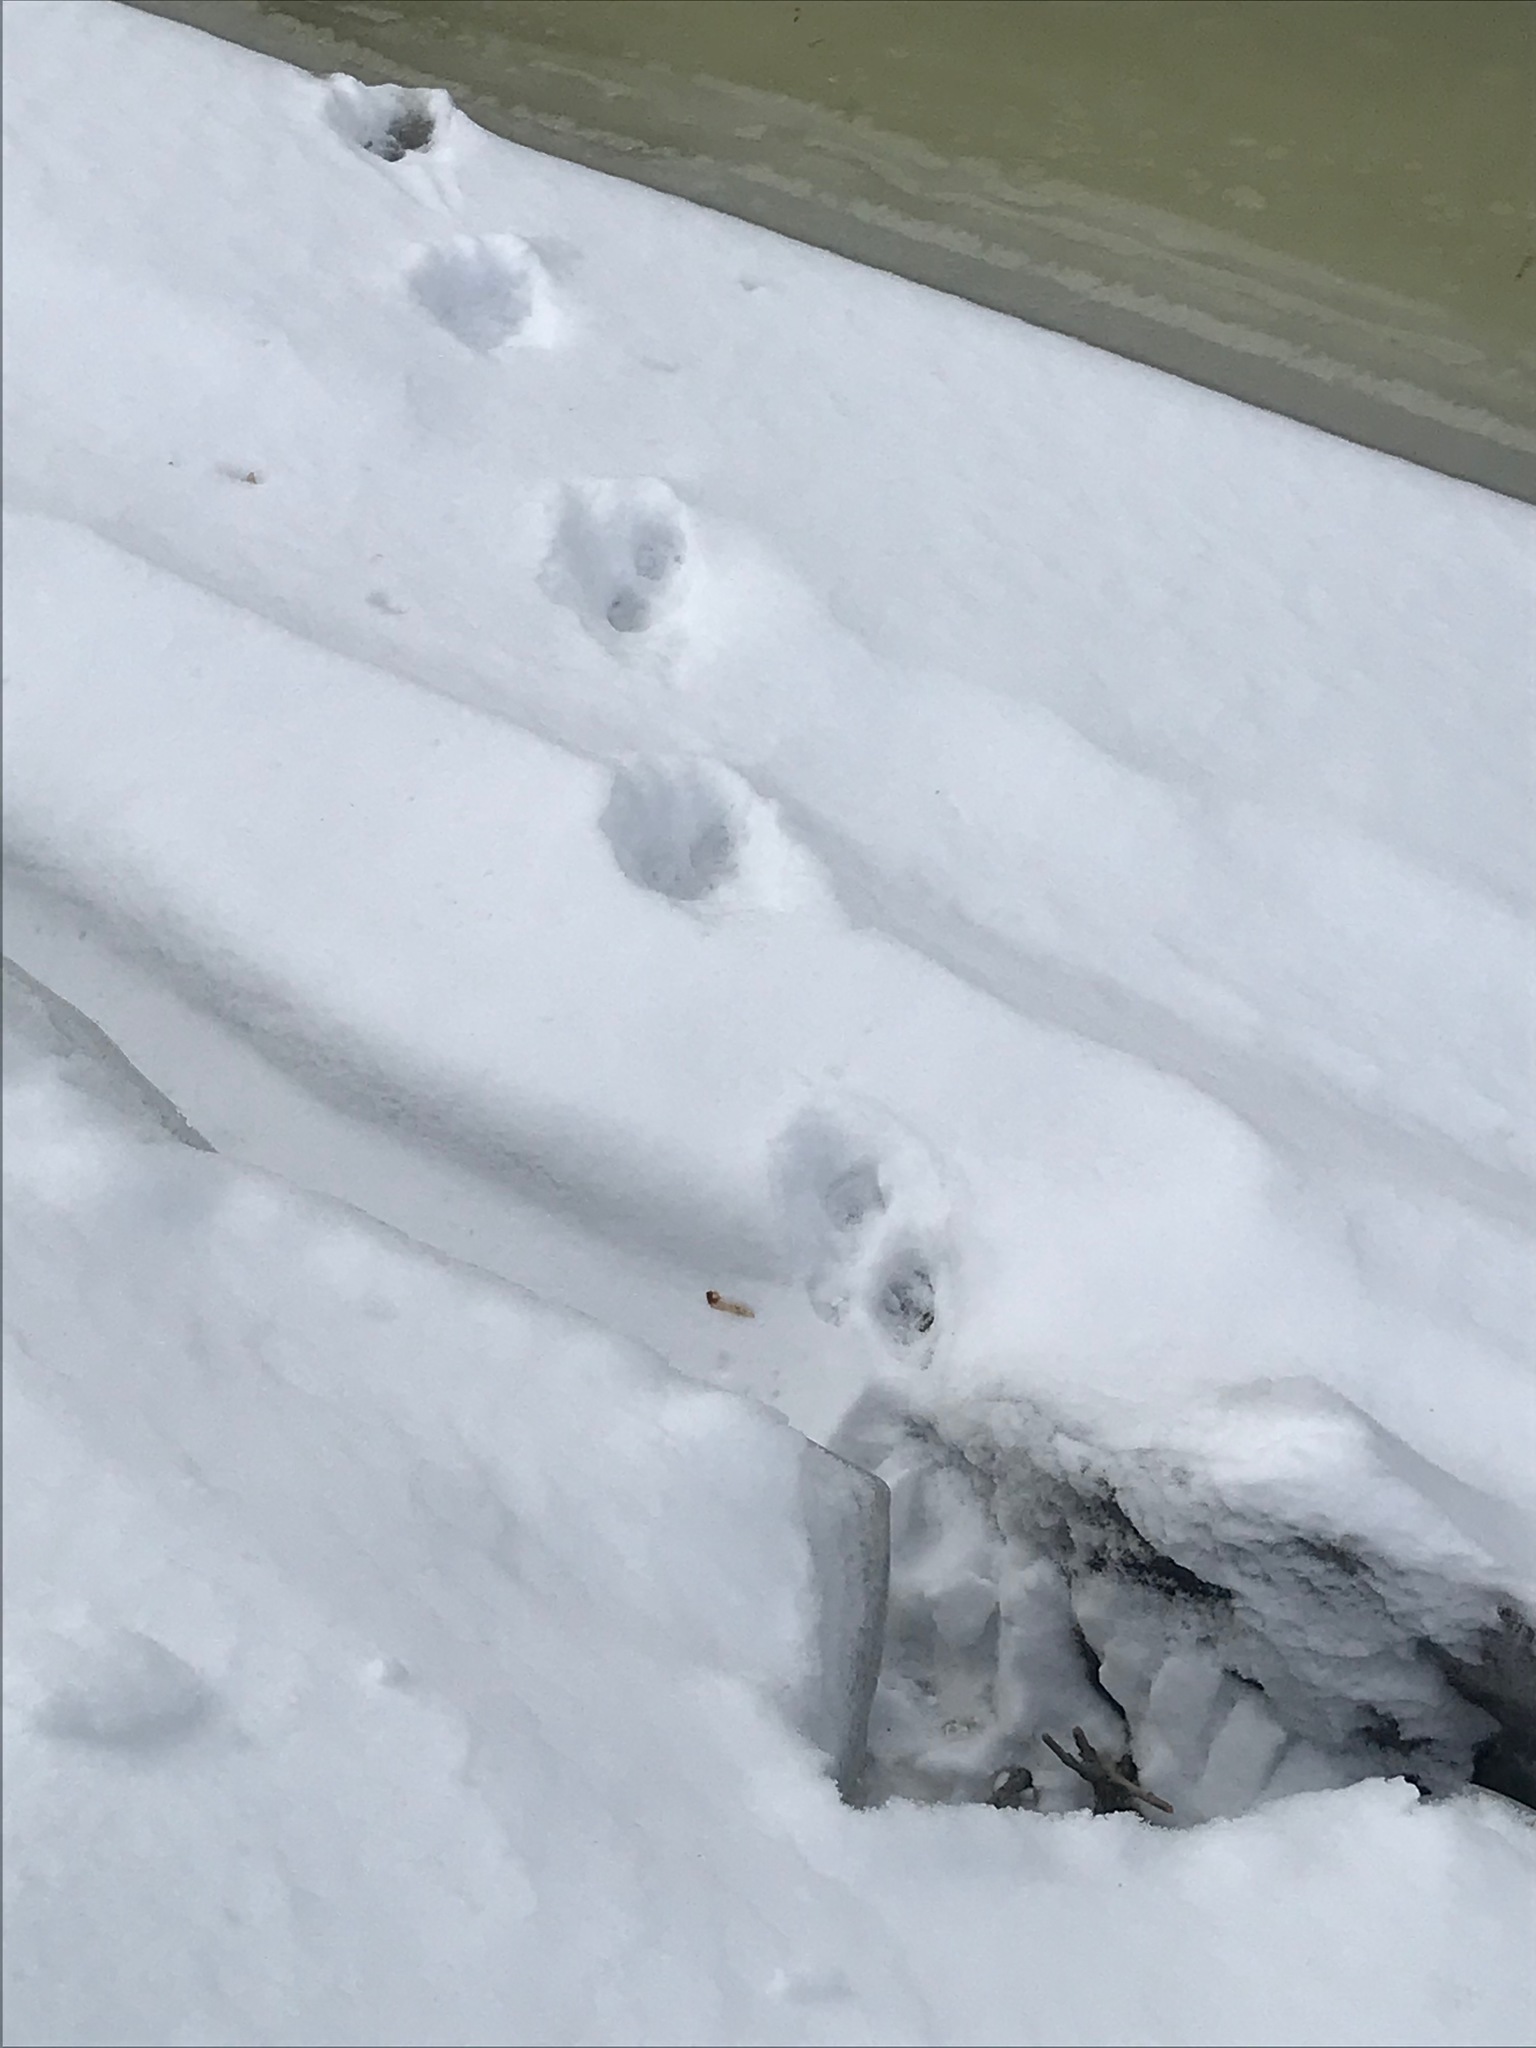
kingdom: Animalia
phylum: Chordata
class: Mammalia
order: Carnivora
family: Mustelidae
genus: Lontra
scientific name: Lontra canadensis
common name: North american river otter
